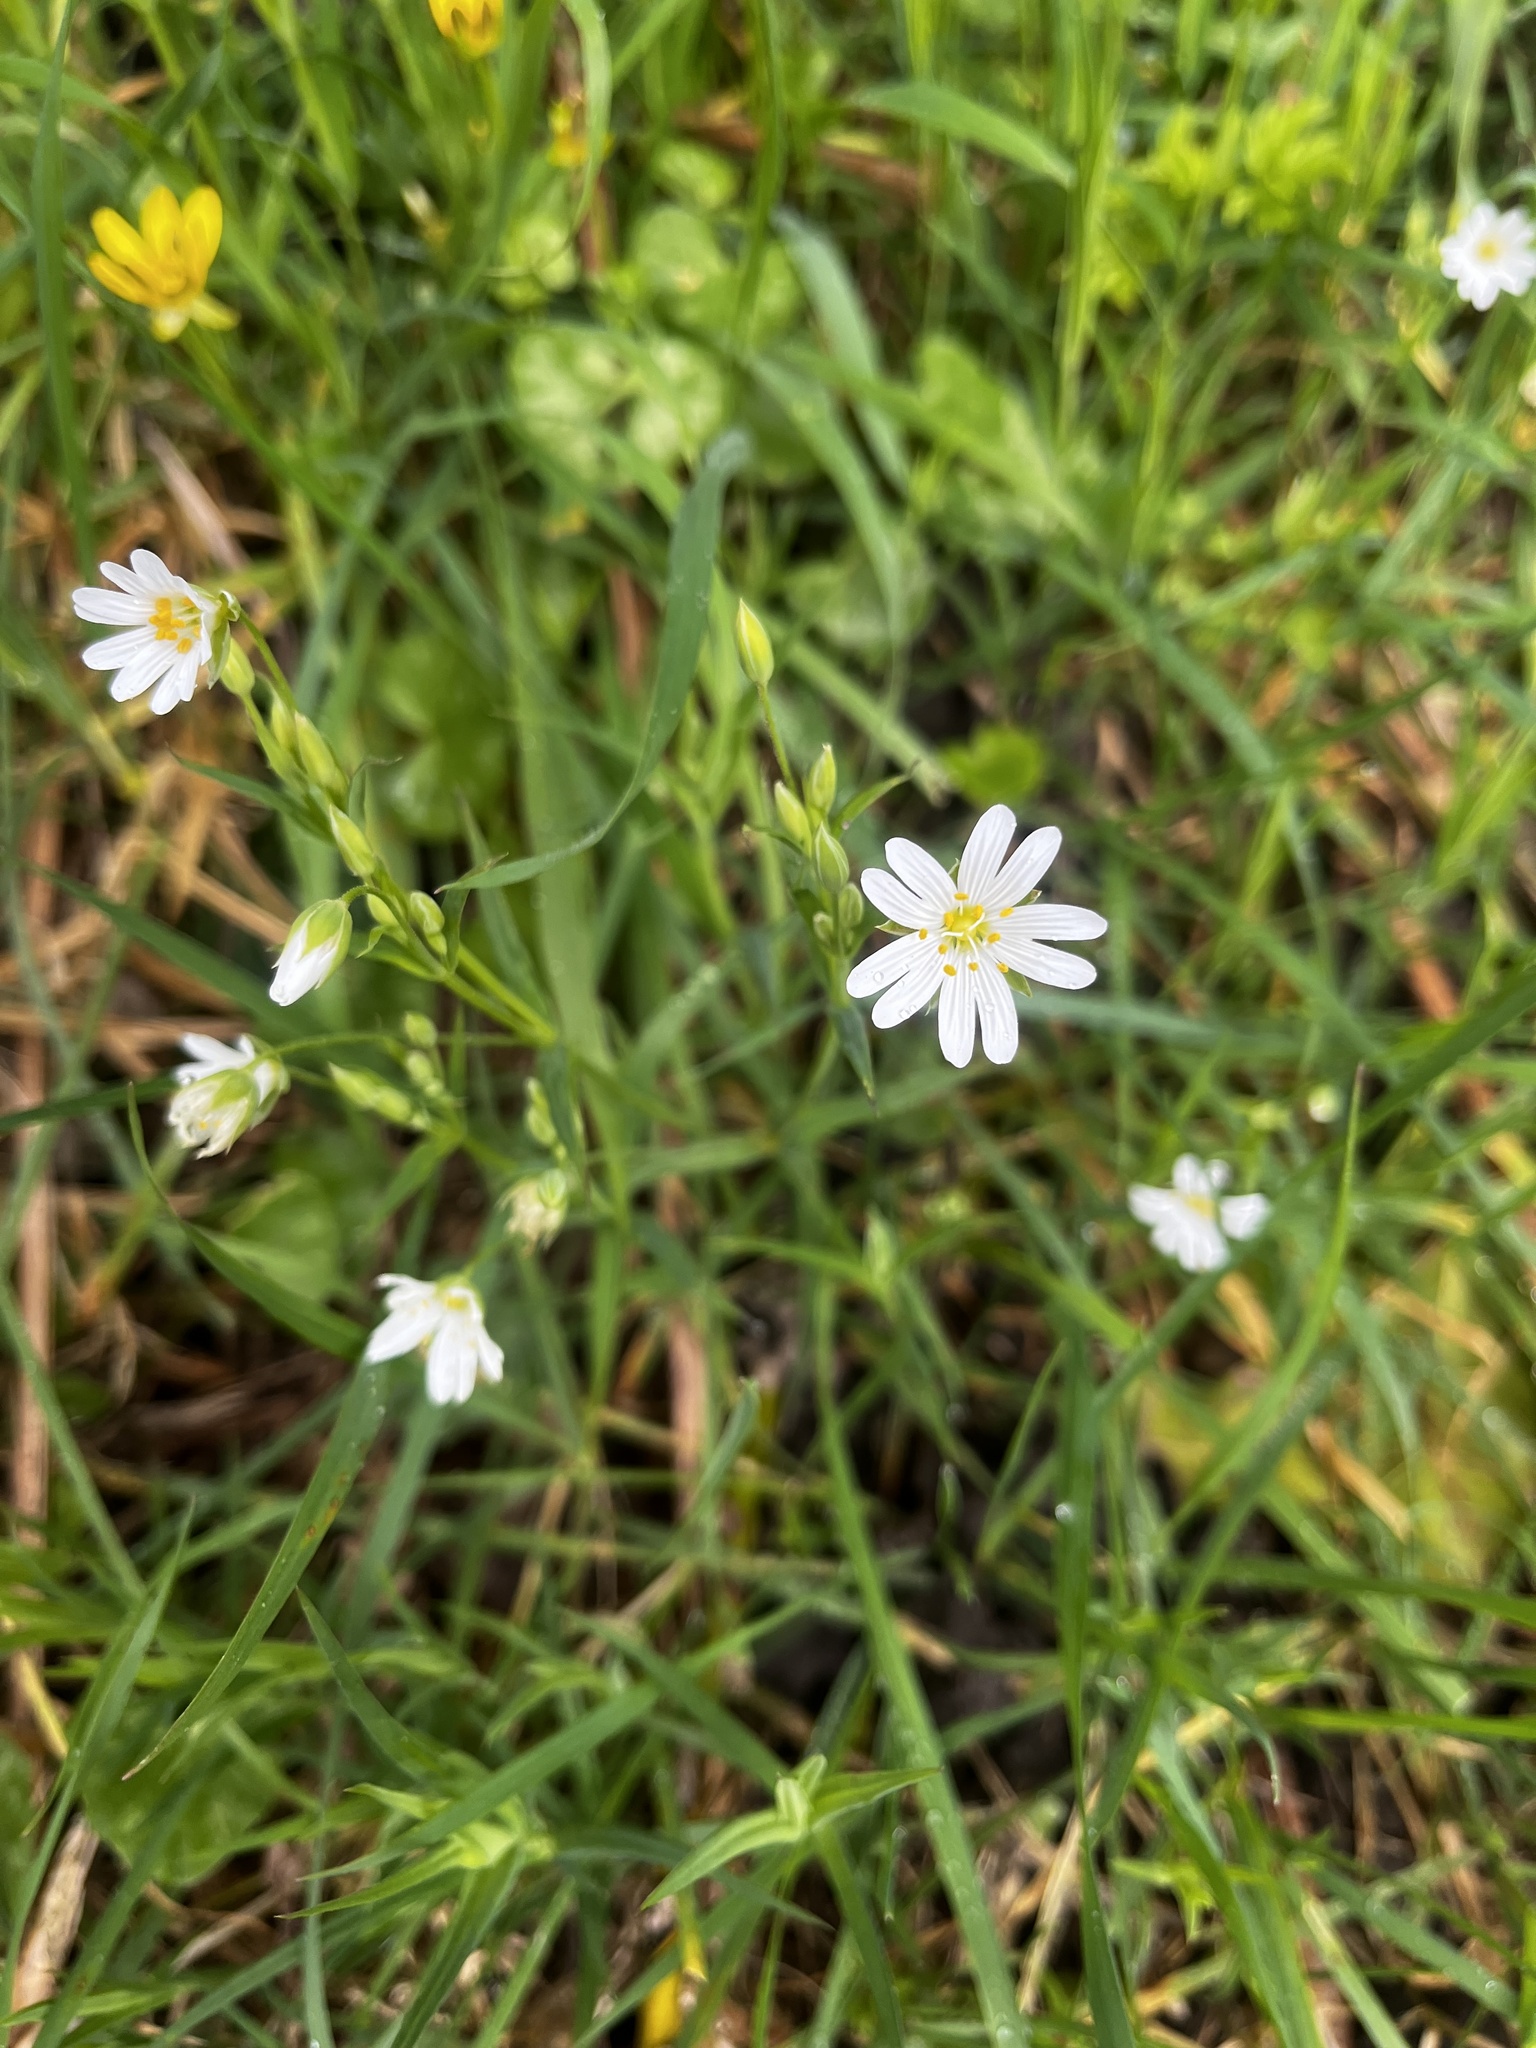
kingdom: Plantae
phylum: Tracheophyta
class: Magnoliopsida
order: Caryophyllales
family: Caryophyllaceae
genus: Rabelera
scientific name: Rabelera holostea
